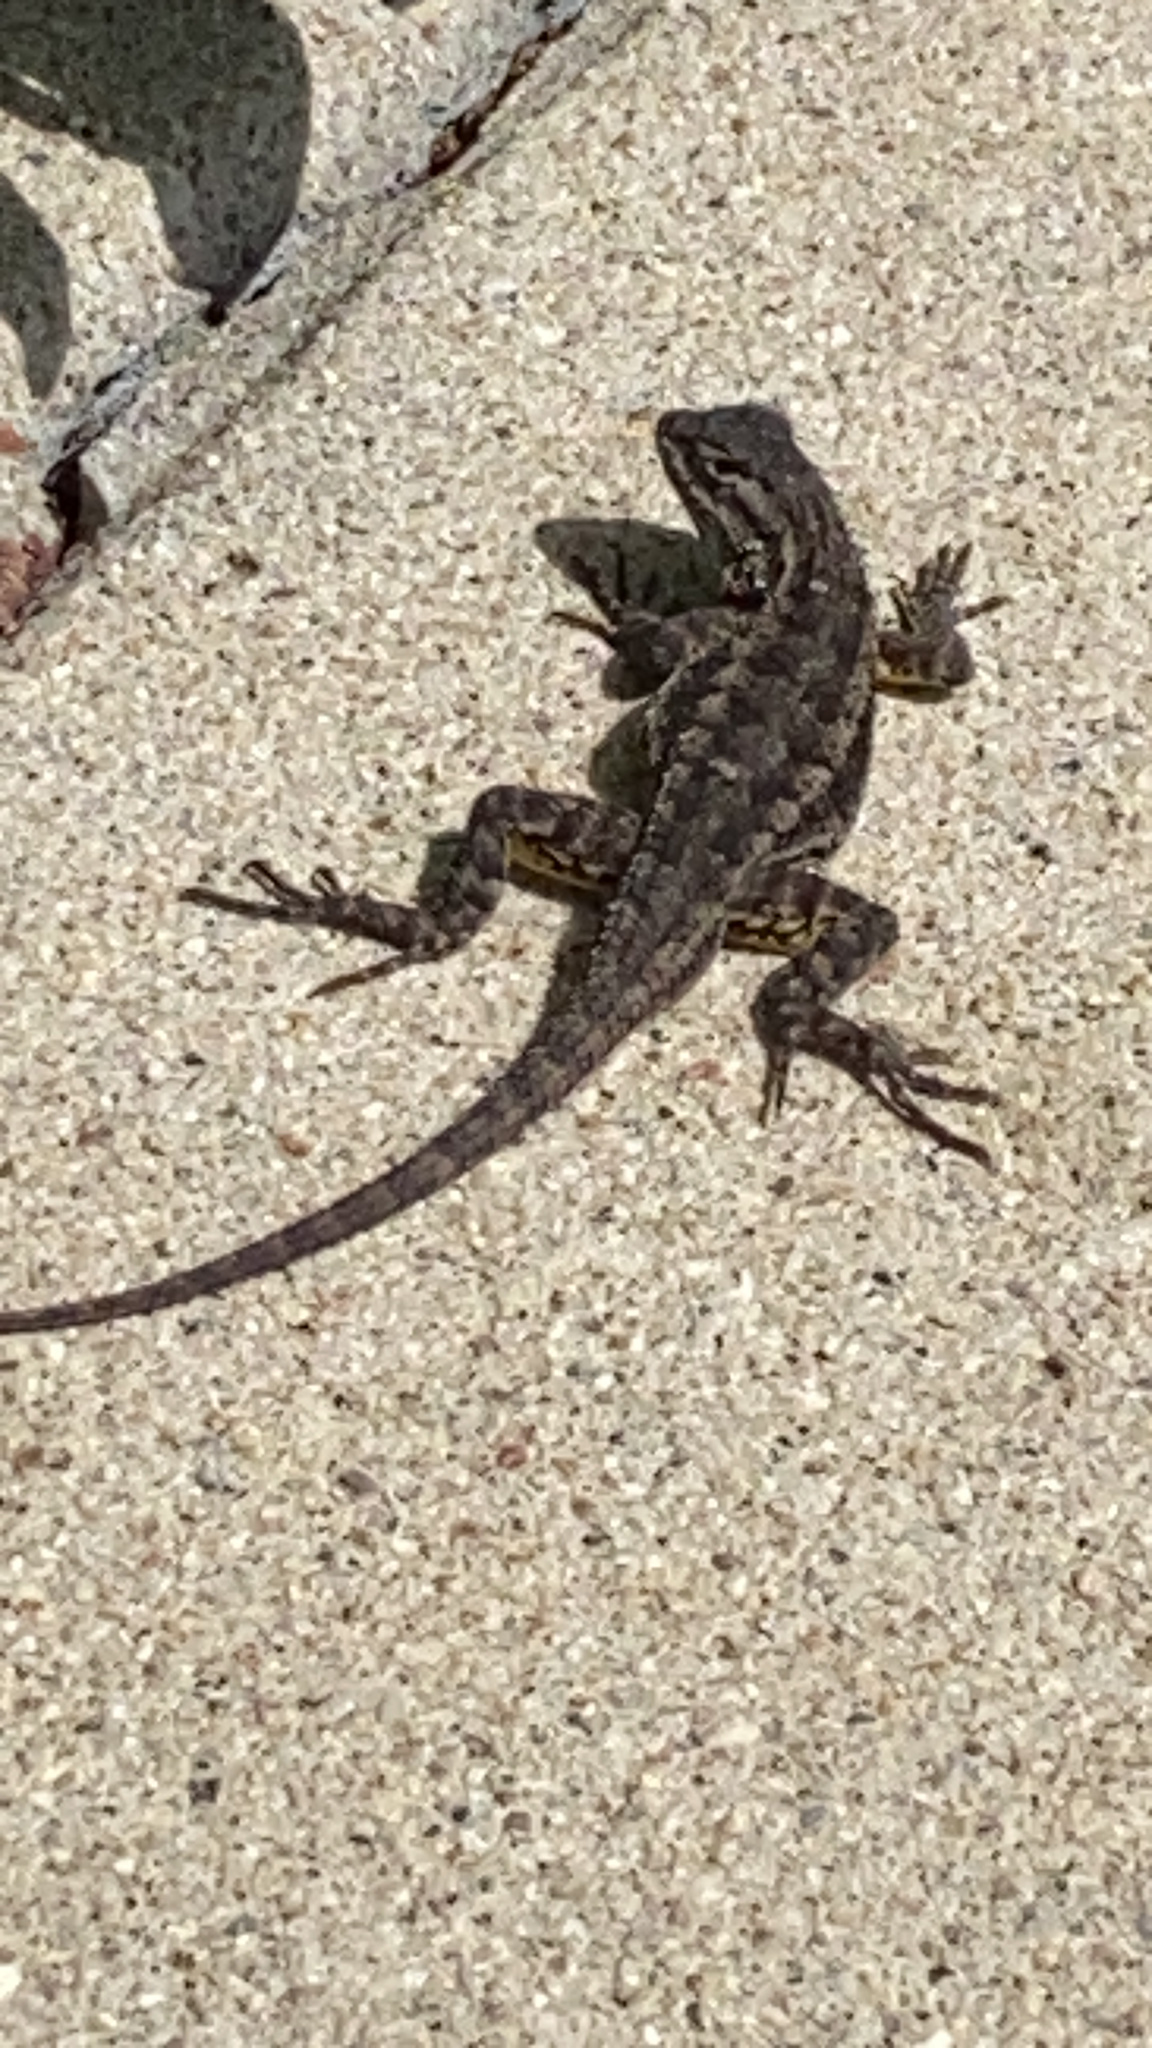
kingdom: Animalia
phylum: Chordata
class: Squamata
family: Phrynosomatidae
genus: Sceloporus
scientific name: Sceloporus occidentalis
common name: Western fence lizard
